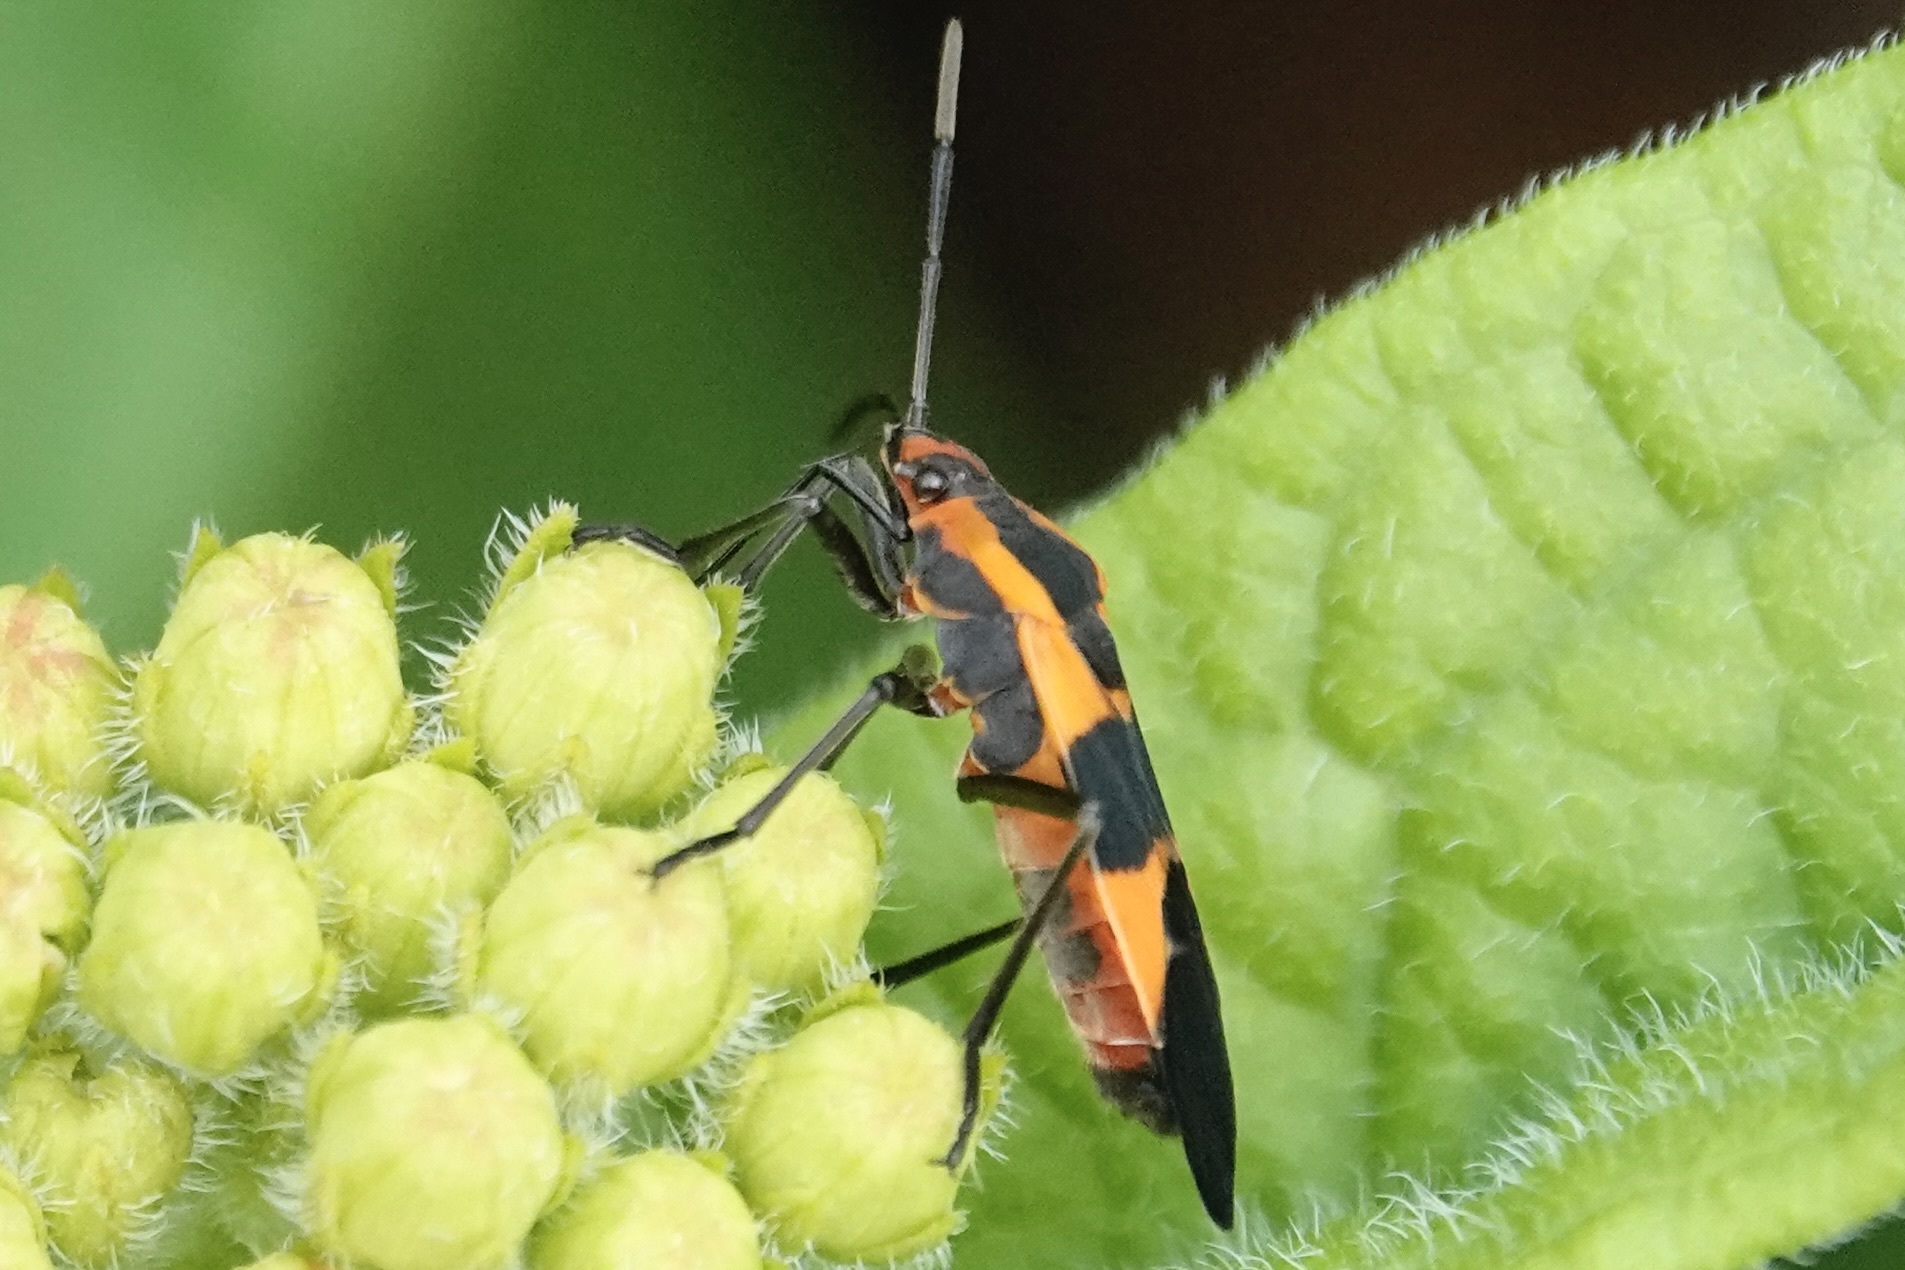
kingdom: Animalia
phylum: Arthropoda
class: Insecta
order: Hemiptera
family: Lygaeidae
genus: Oncopeltus
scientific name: Oncopeltus fasciatus
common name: Large milkweed bug
